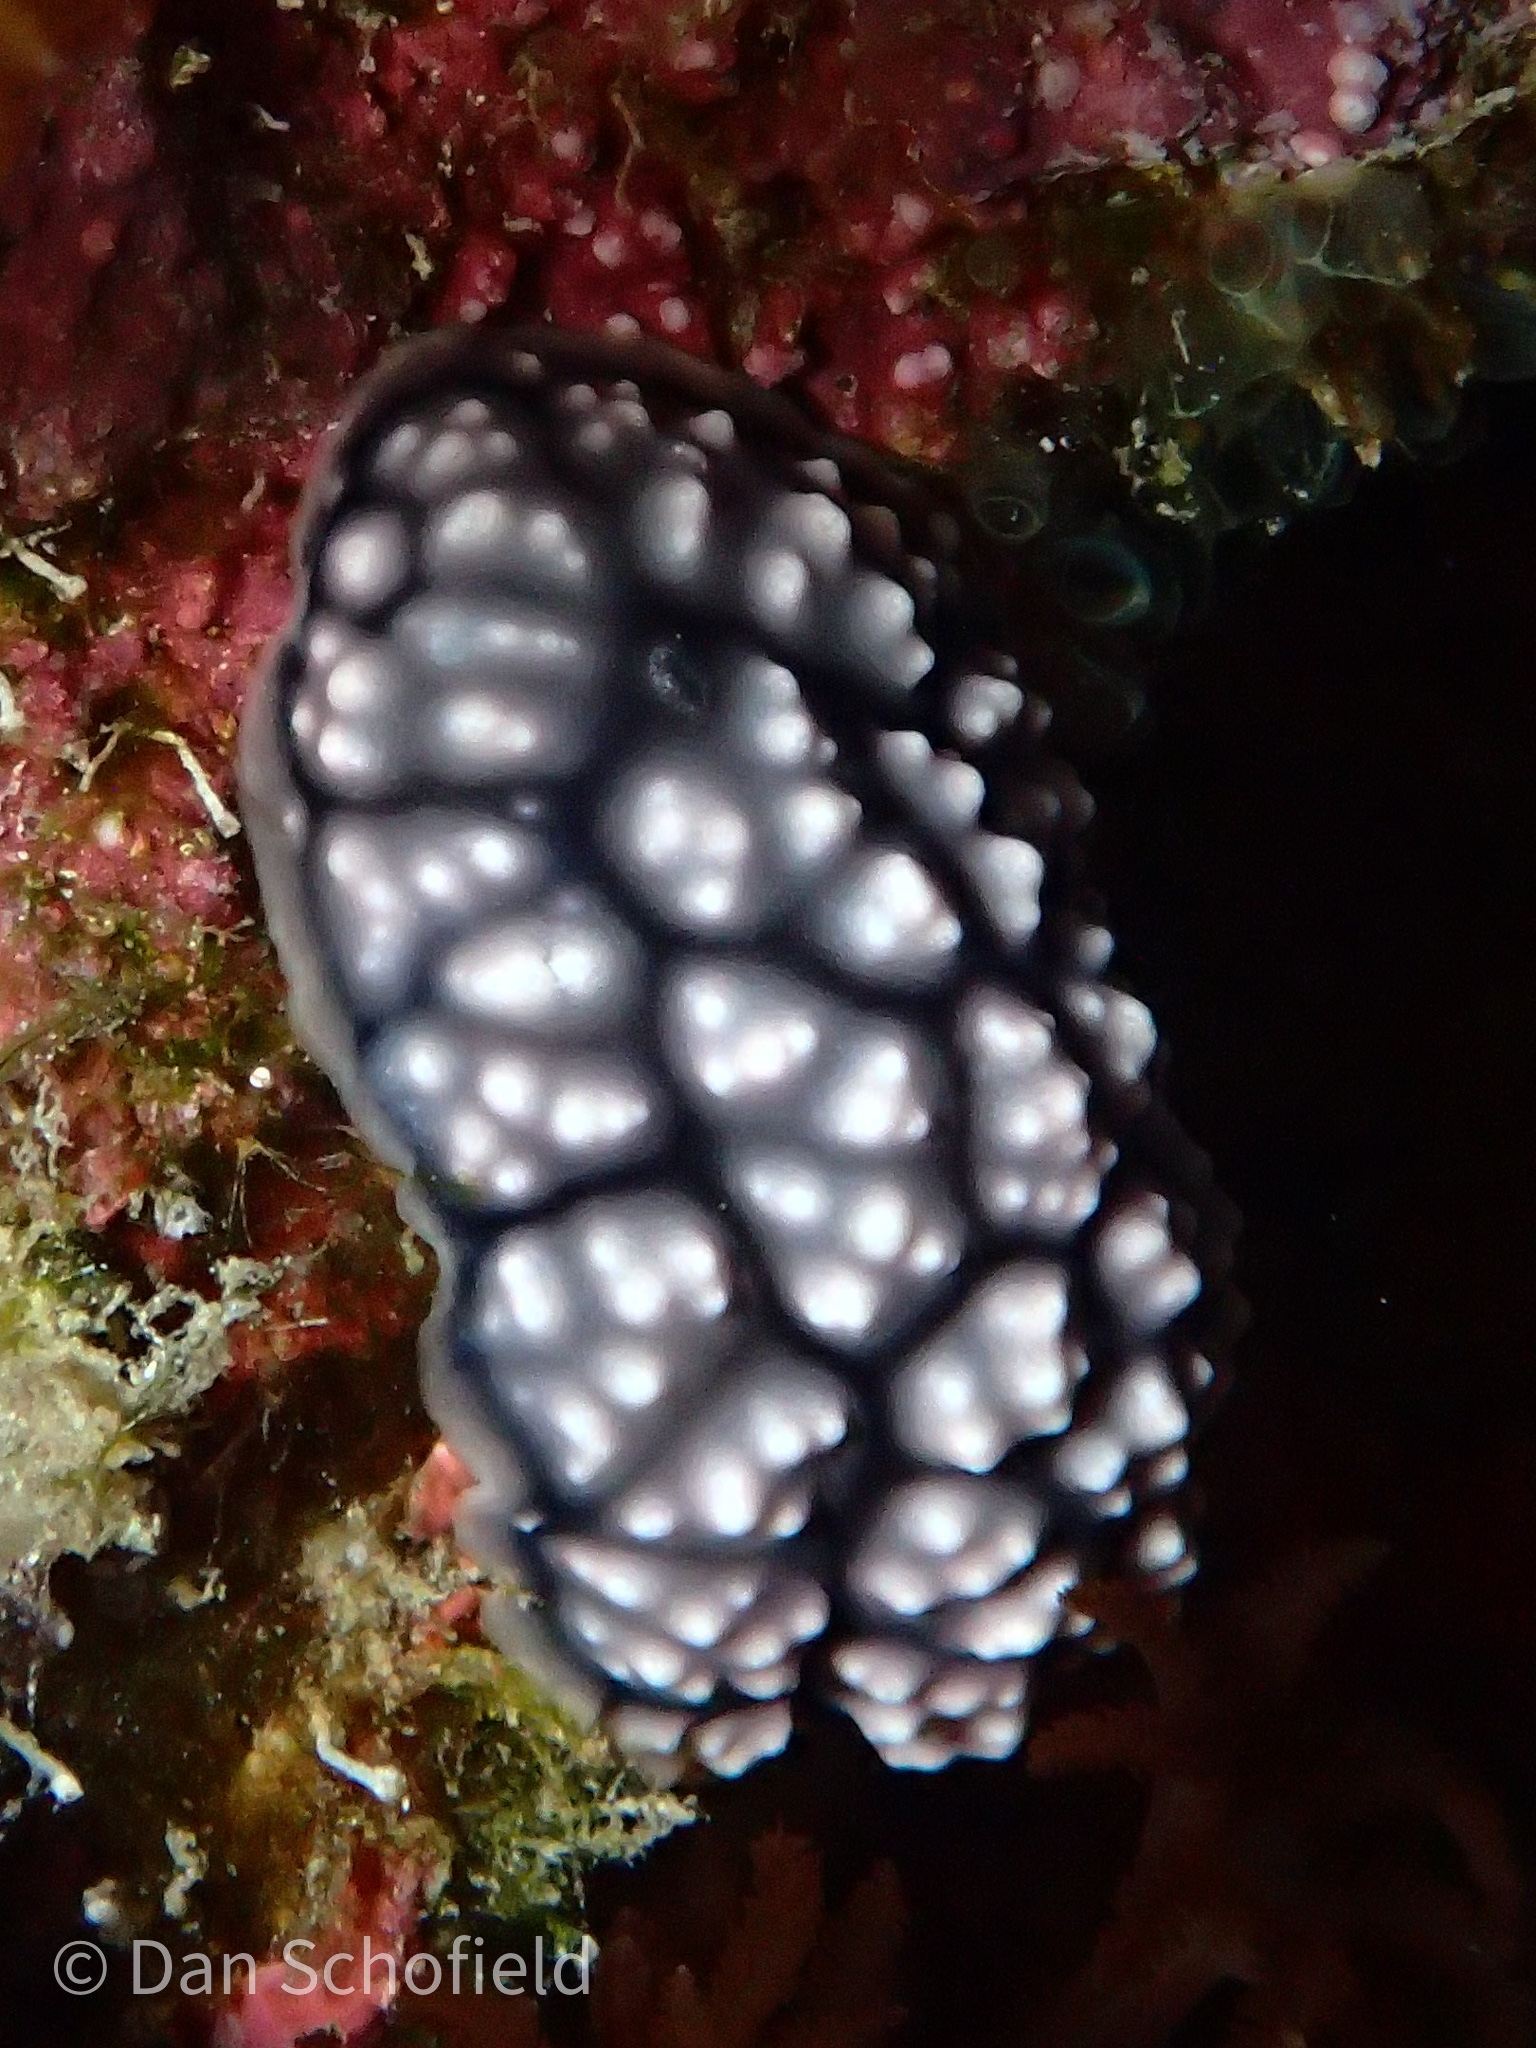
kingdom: Animalia
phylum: Mollusca
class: Gastropoda
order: Nudibranchia
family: Phyllidiidae
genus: Phyllidiella
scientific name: Phyllidiella pustulosa
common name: Pustular phyllidia
